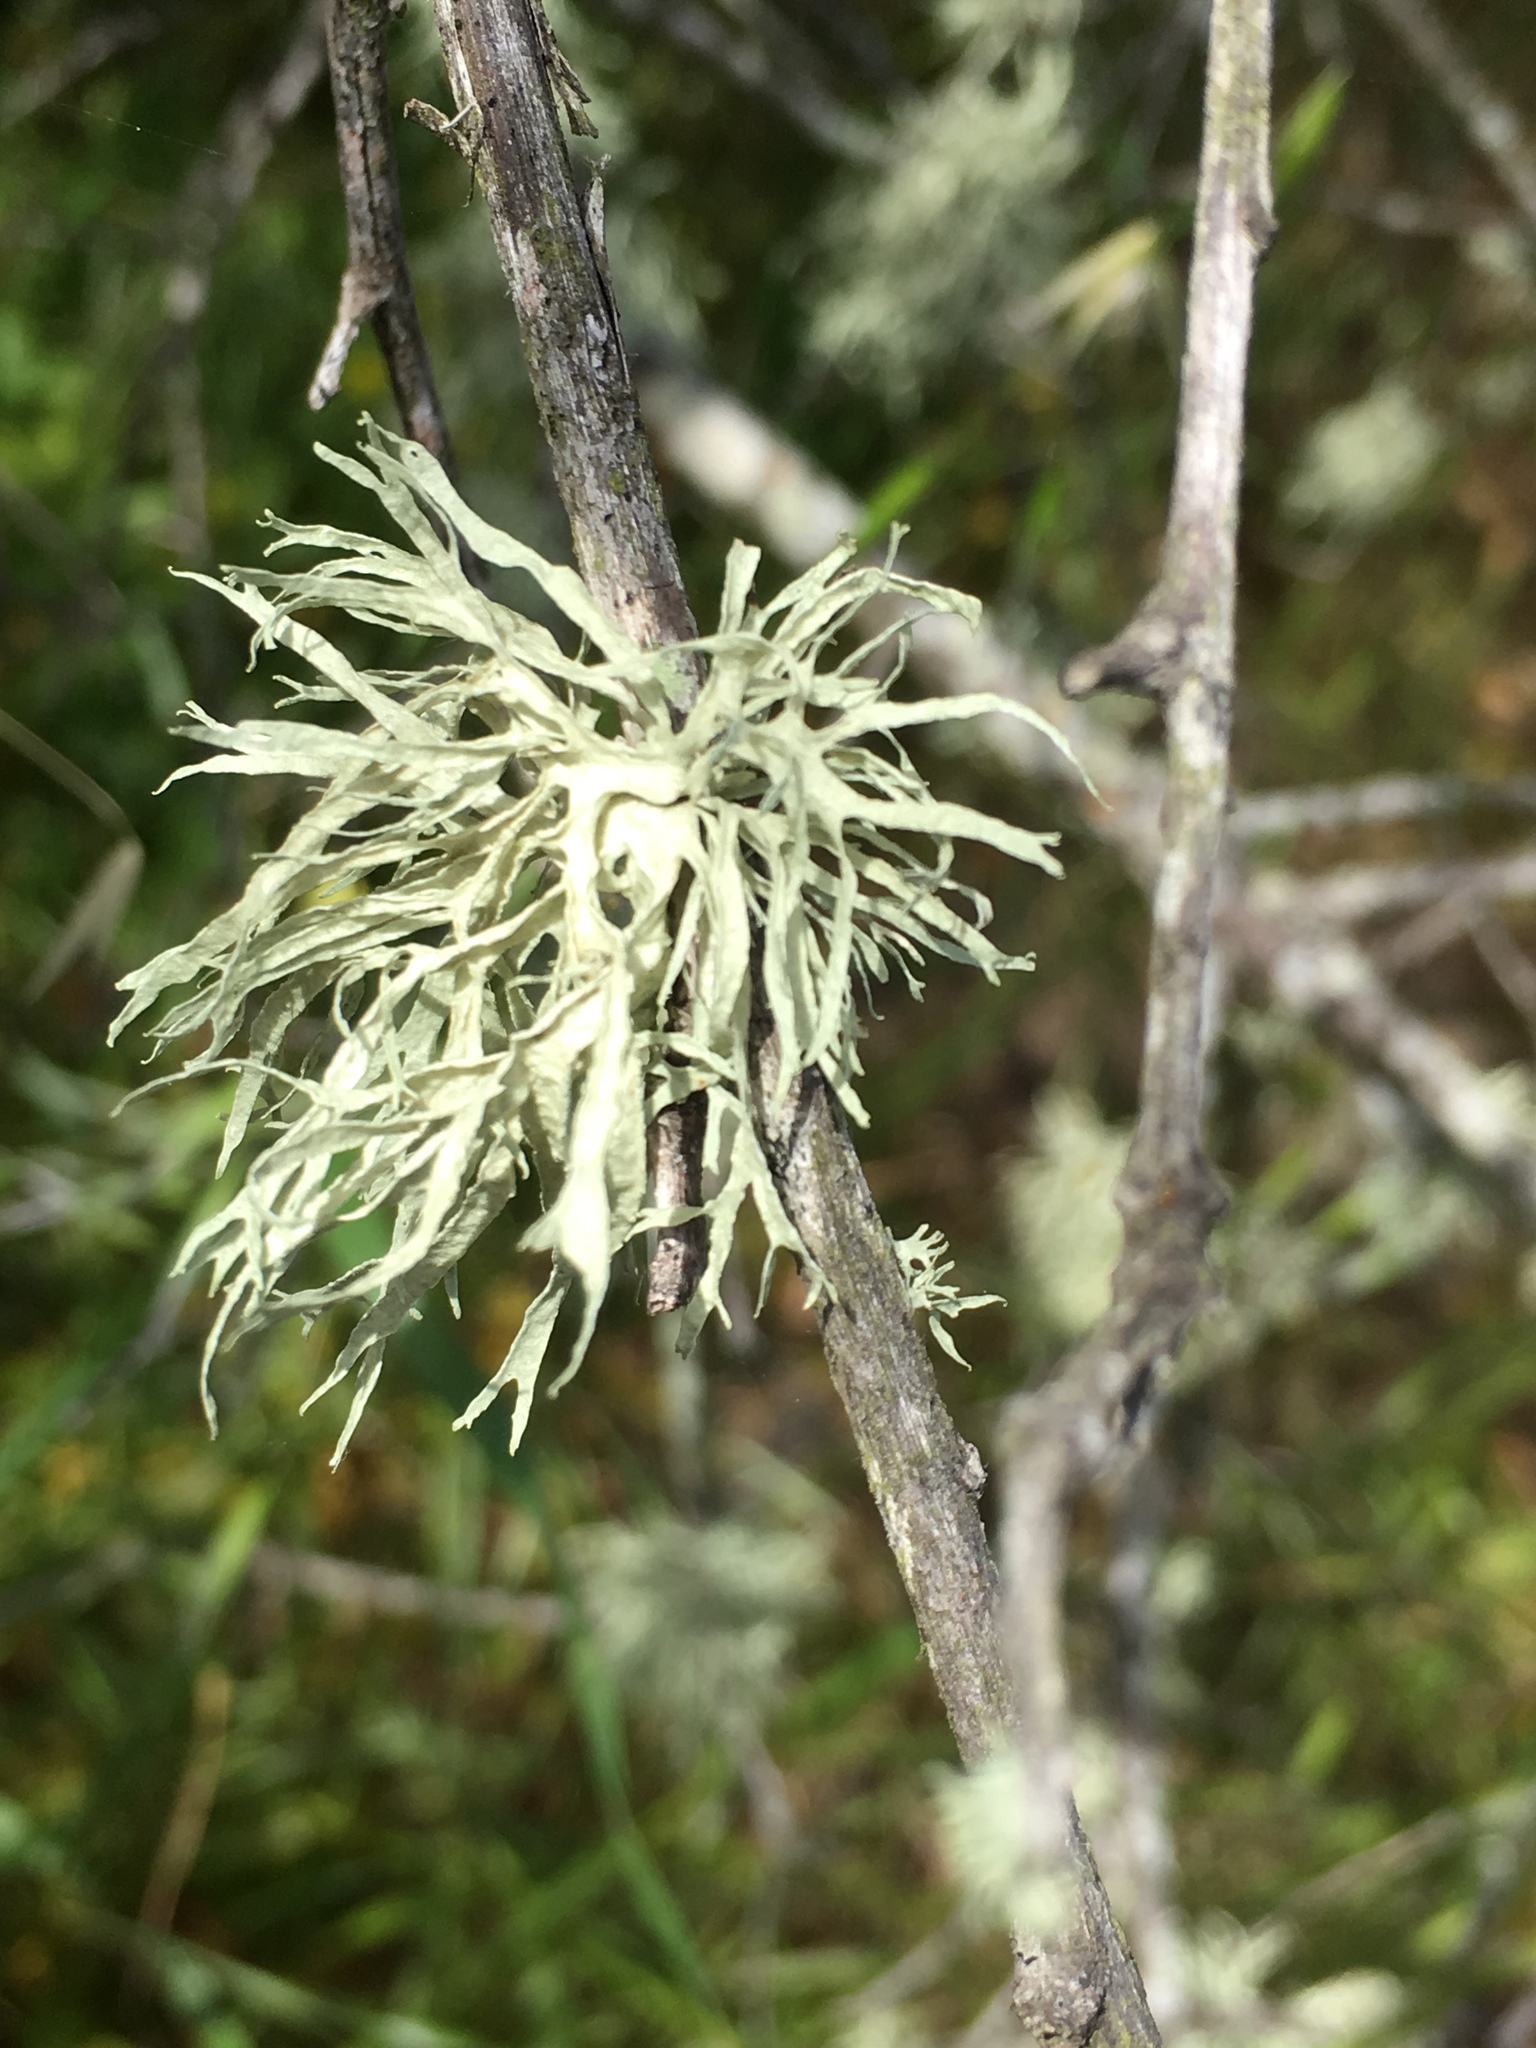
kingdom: Fungi
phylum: Ascomycota
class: Lecanoromycetes
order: Lecanorales
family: Ramalinaceae
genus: Ramalina
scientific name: Ramalina subleptocarpha
